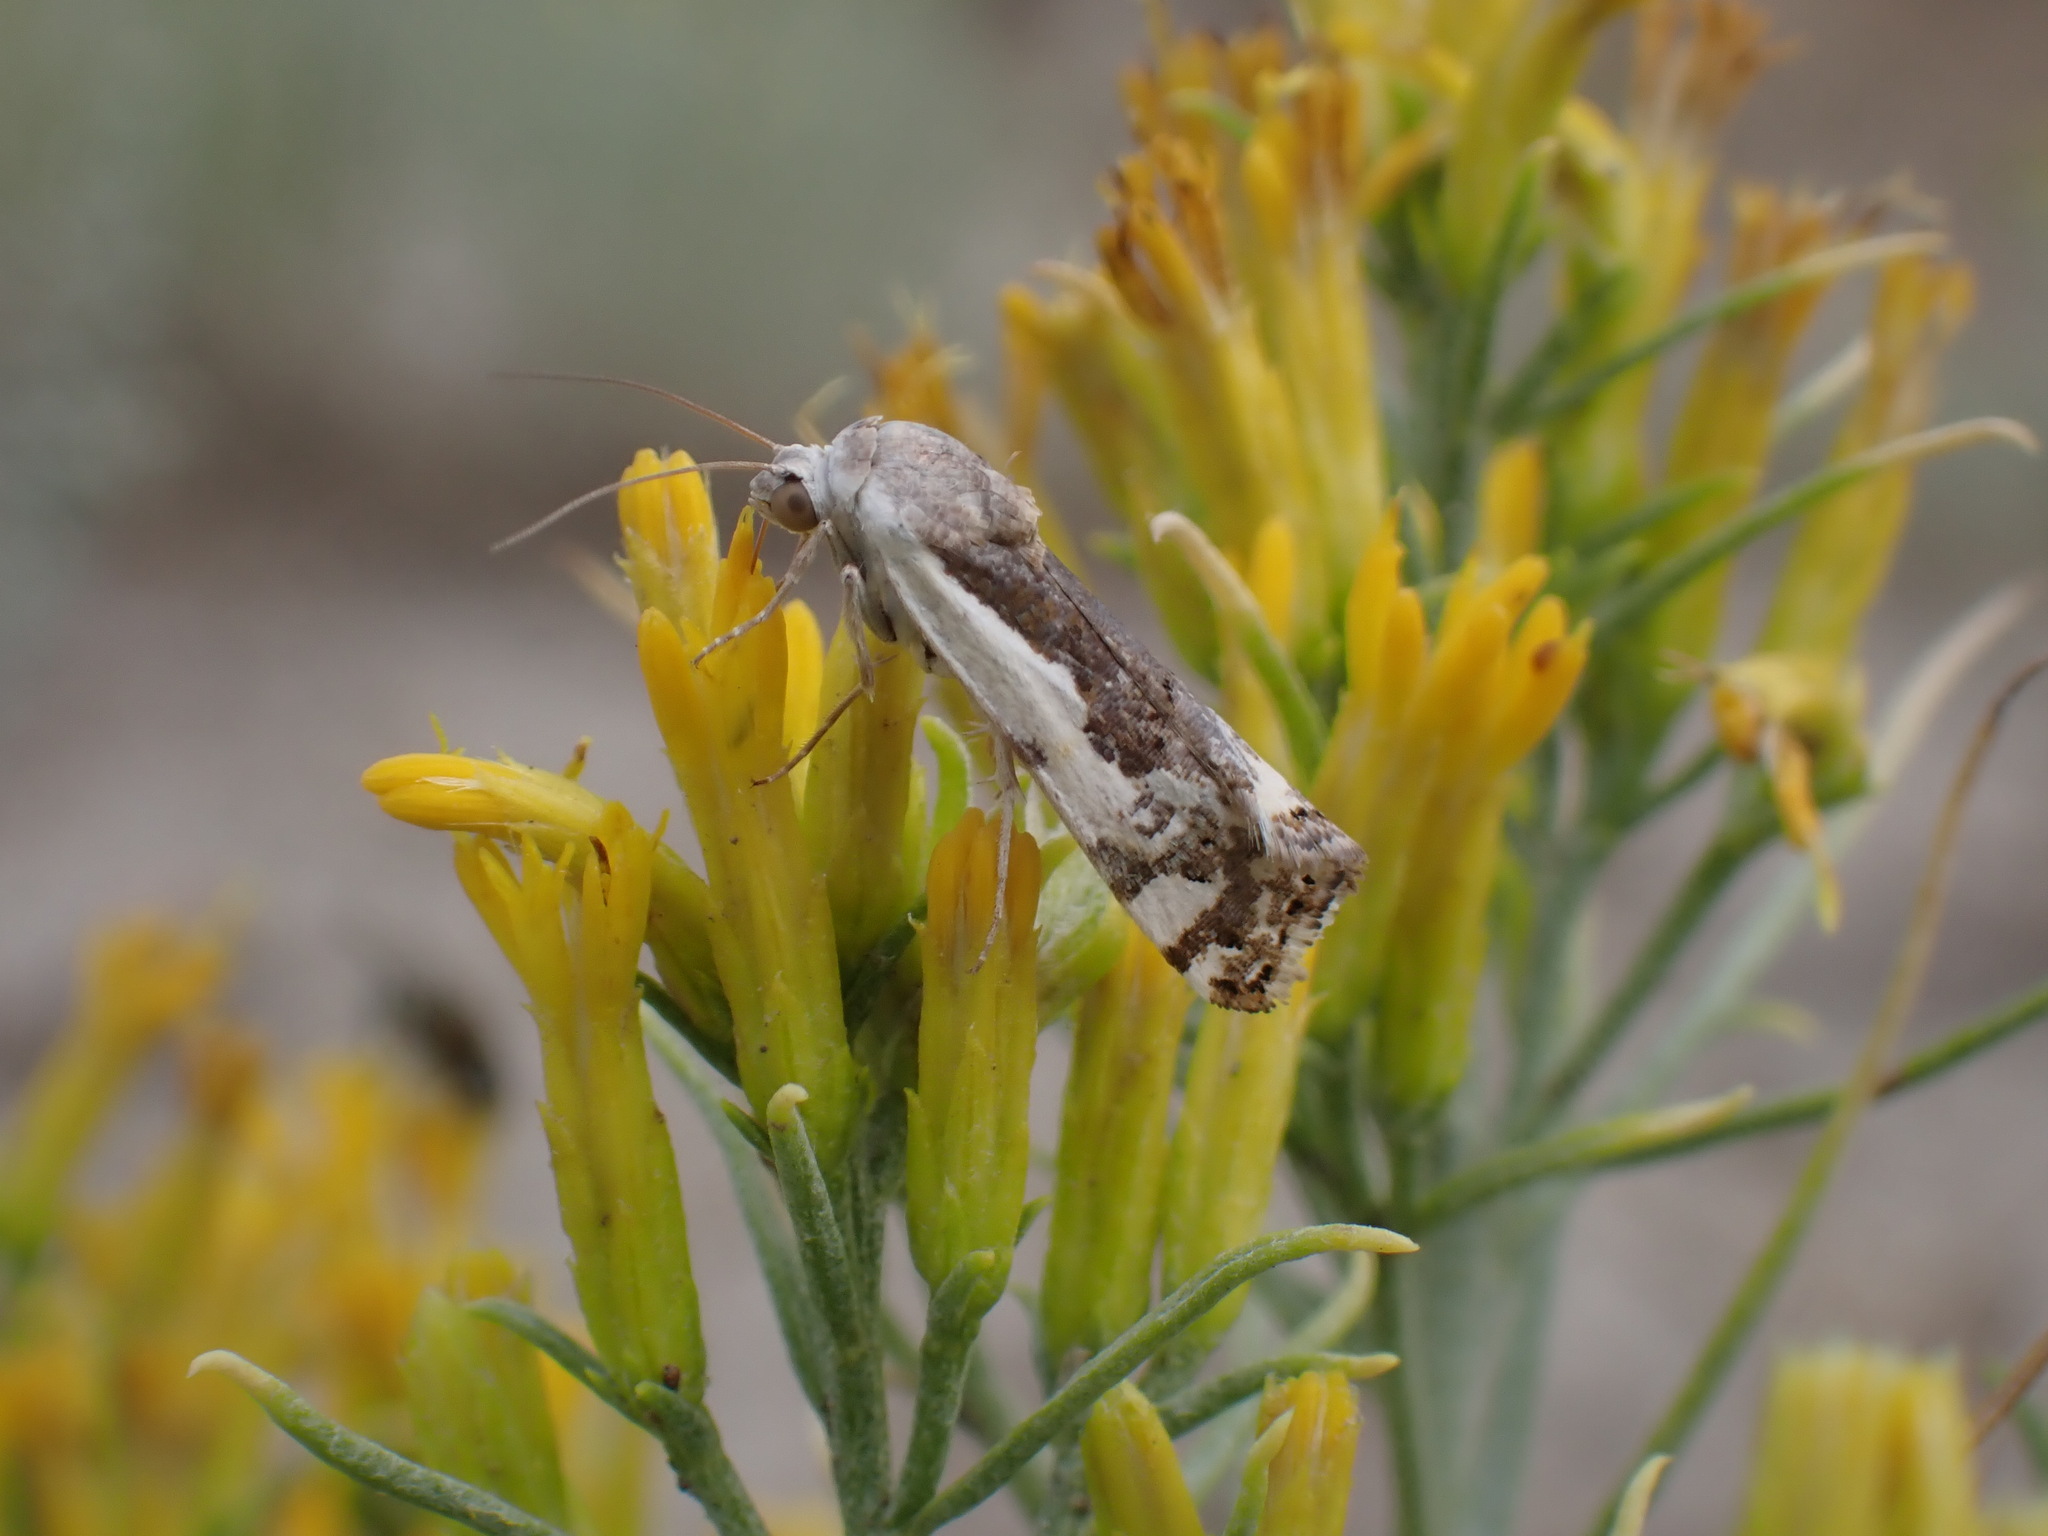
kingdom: Animalia
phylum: Arthropoda
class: Insecta
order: Lepidoptera
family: Noctuidae
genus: Acontia
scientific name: Acontia Tarache augustipennis
